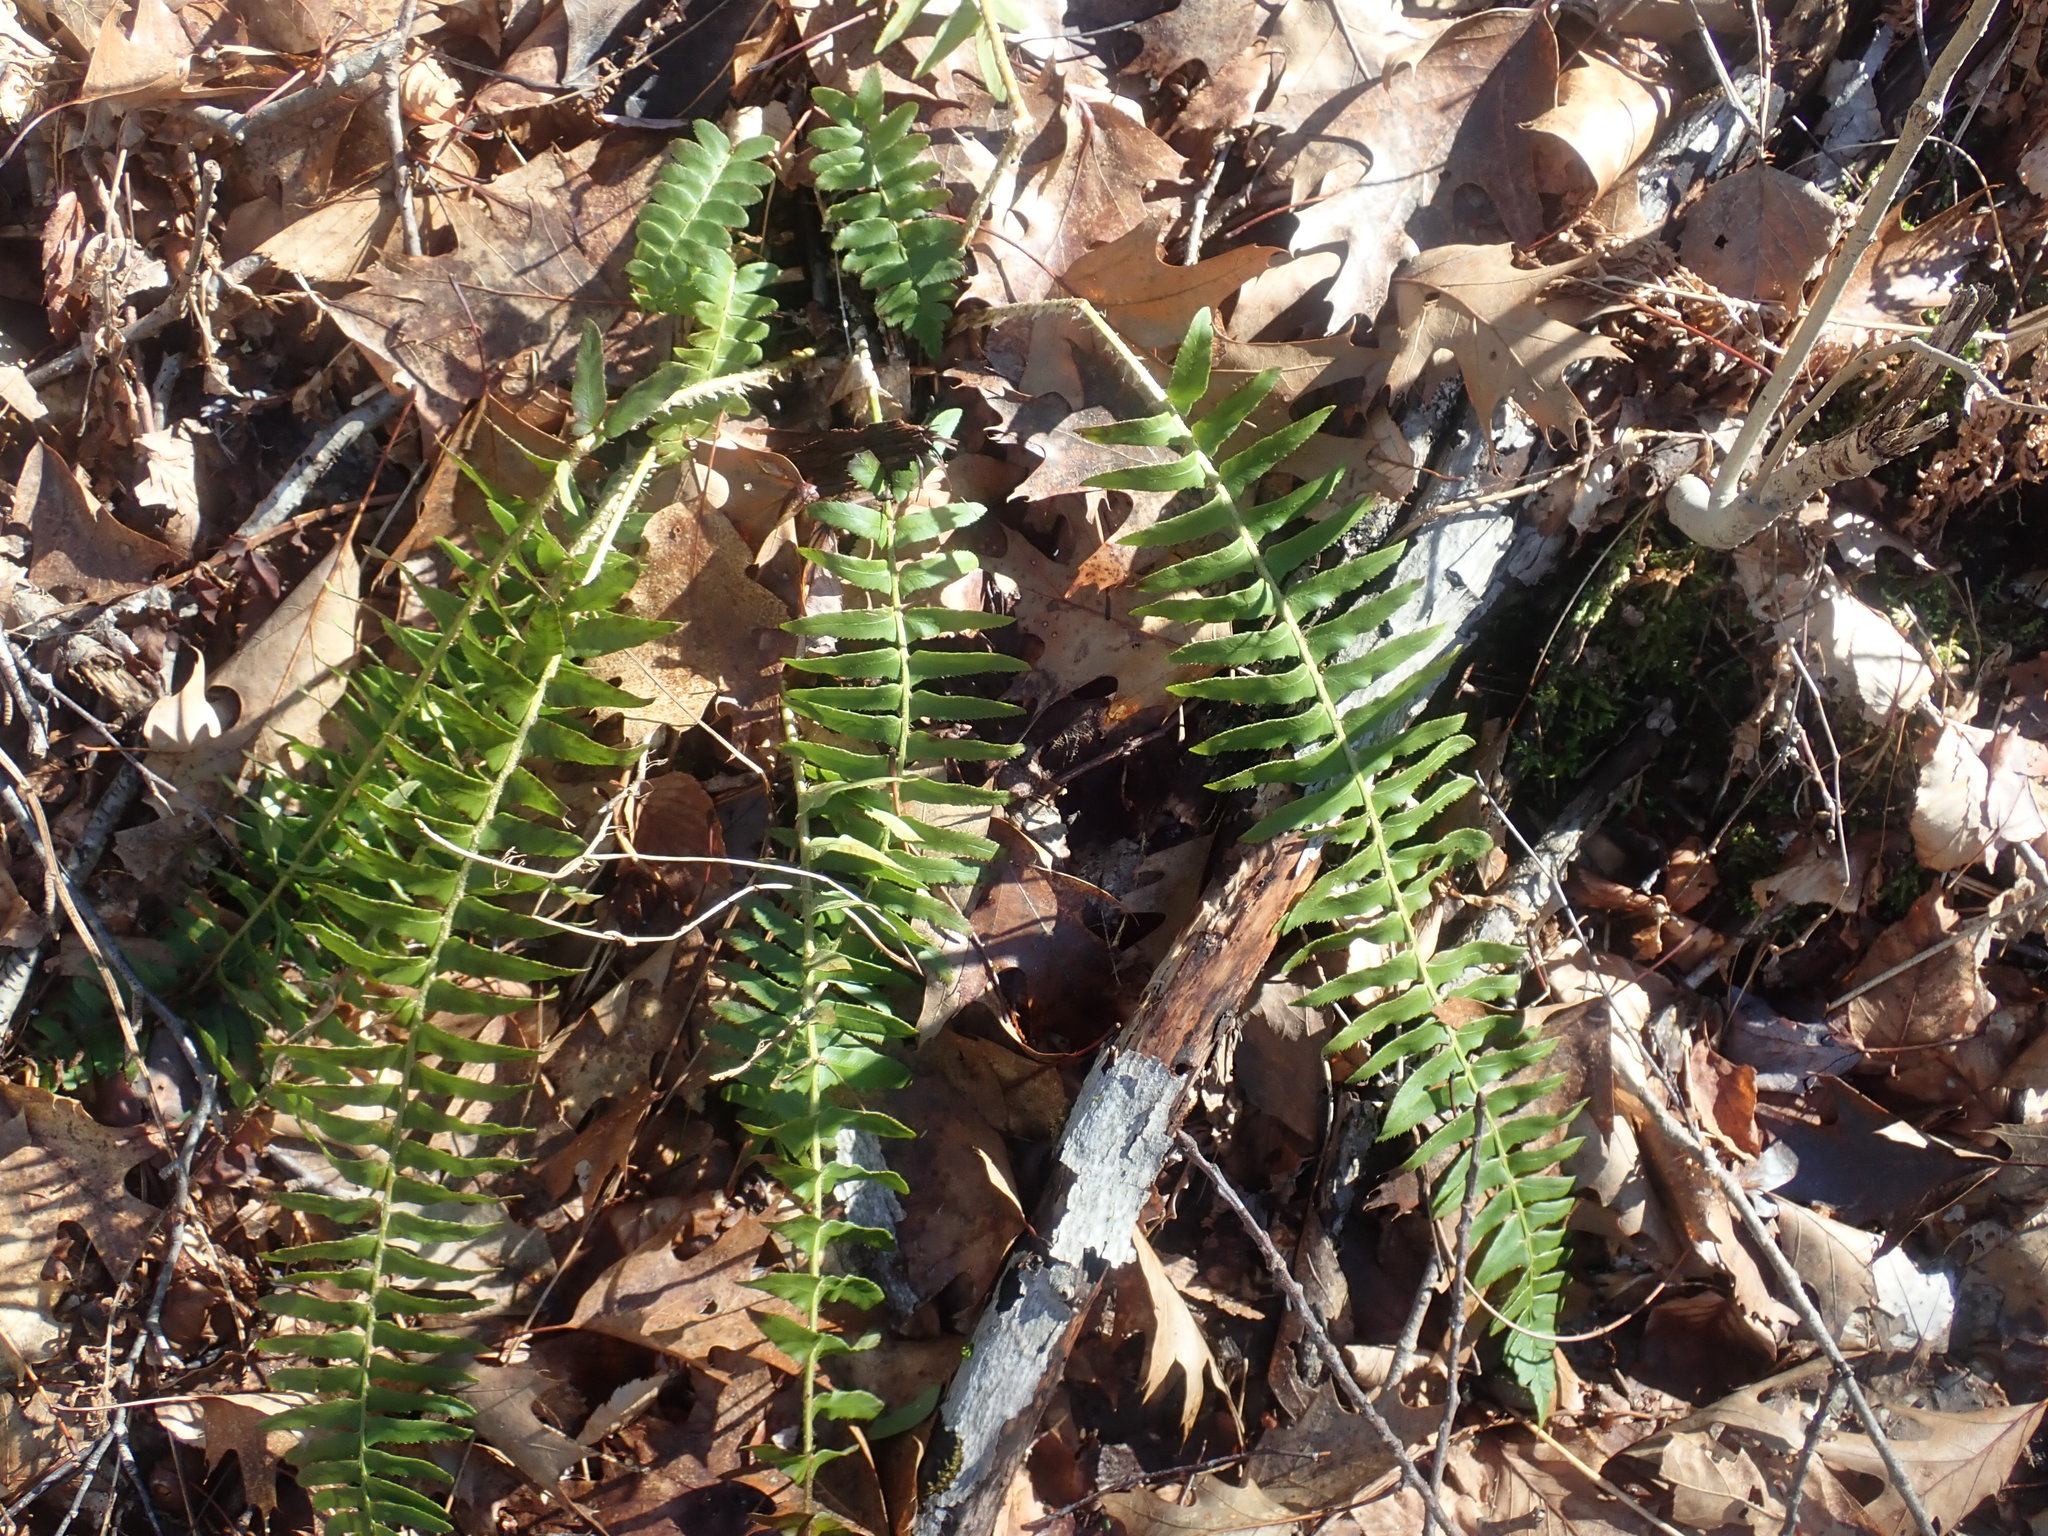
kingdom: Plantae
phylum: Tracheophyta
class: Polypodiopsida
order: Polypodiales
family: Dryopteridaceae
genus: Polystichum
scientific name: Polystichum acrostichoides
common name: Christmas fern
